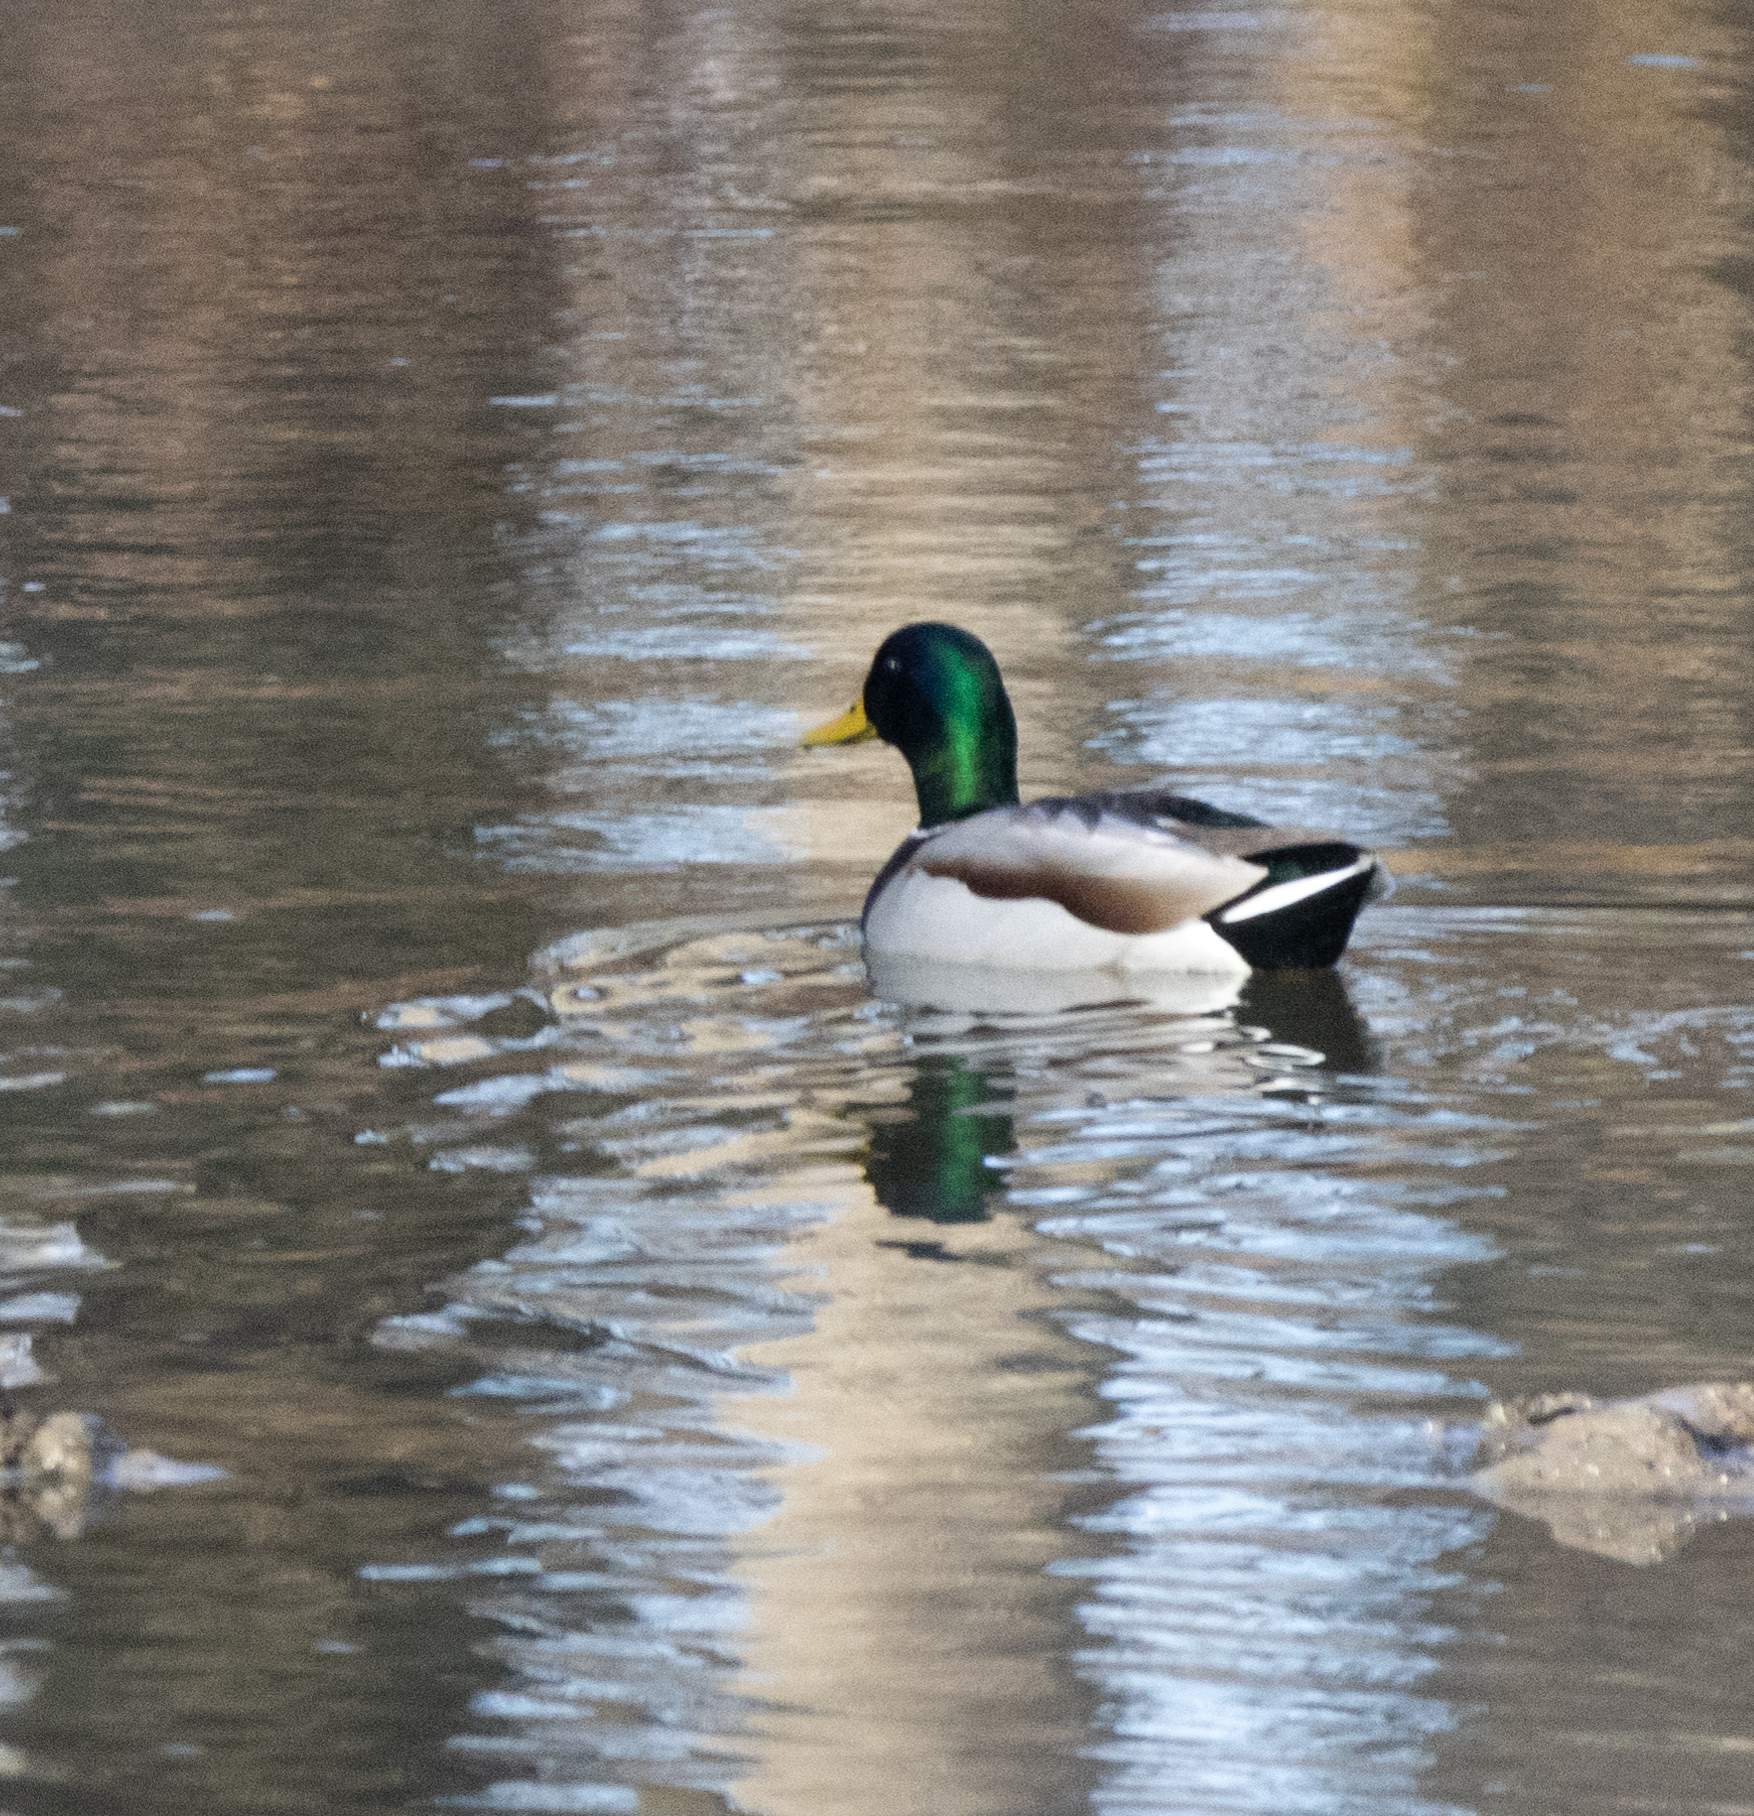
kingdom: Animalia
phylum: Chordata
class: Aves
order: Anseriformes
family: Anatidae
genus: Anas
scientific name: Anas platyrhynchos
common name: Mallard
